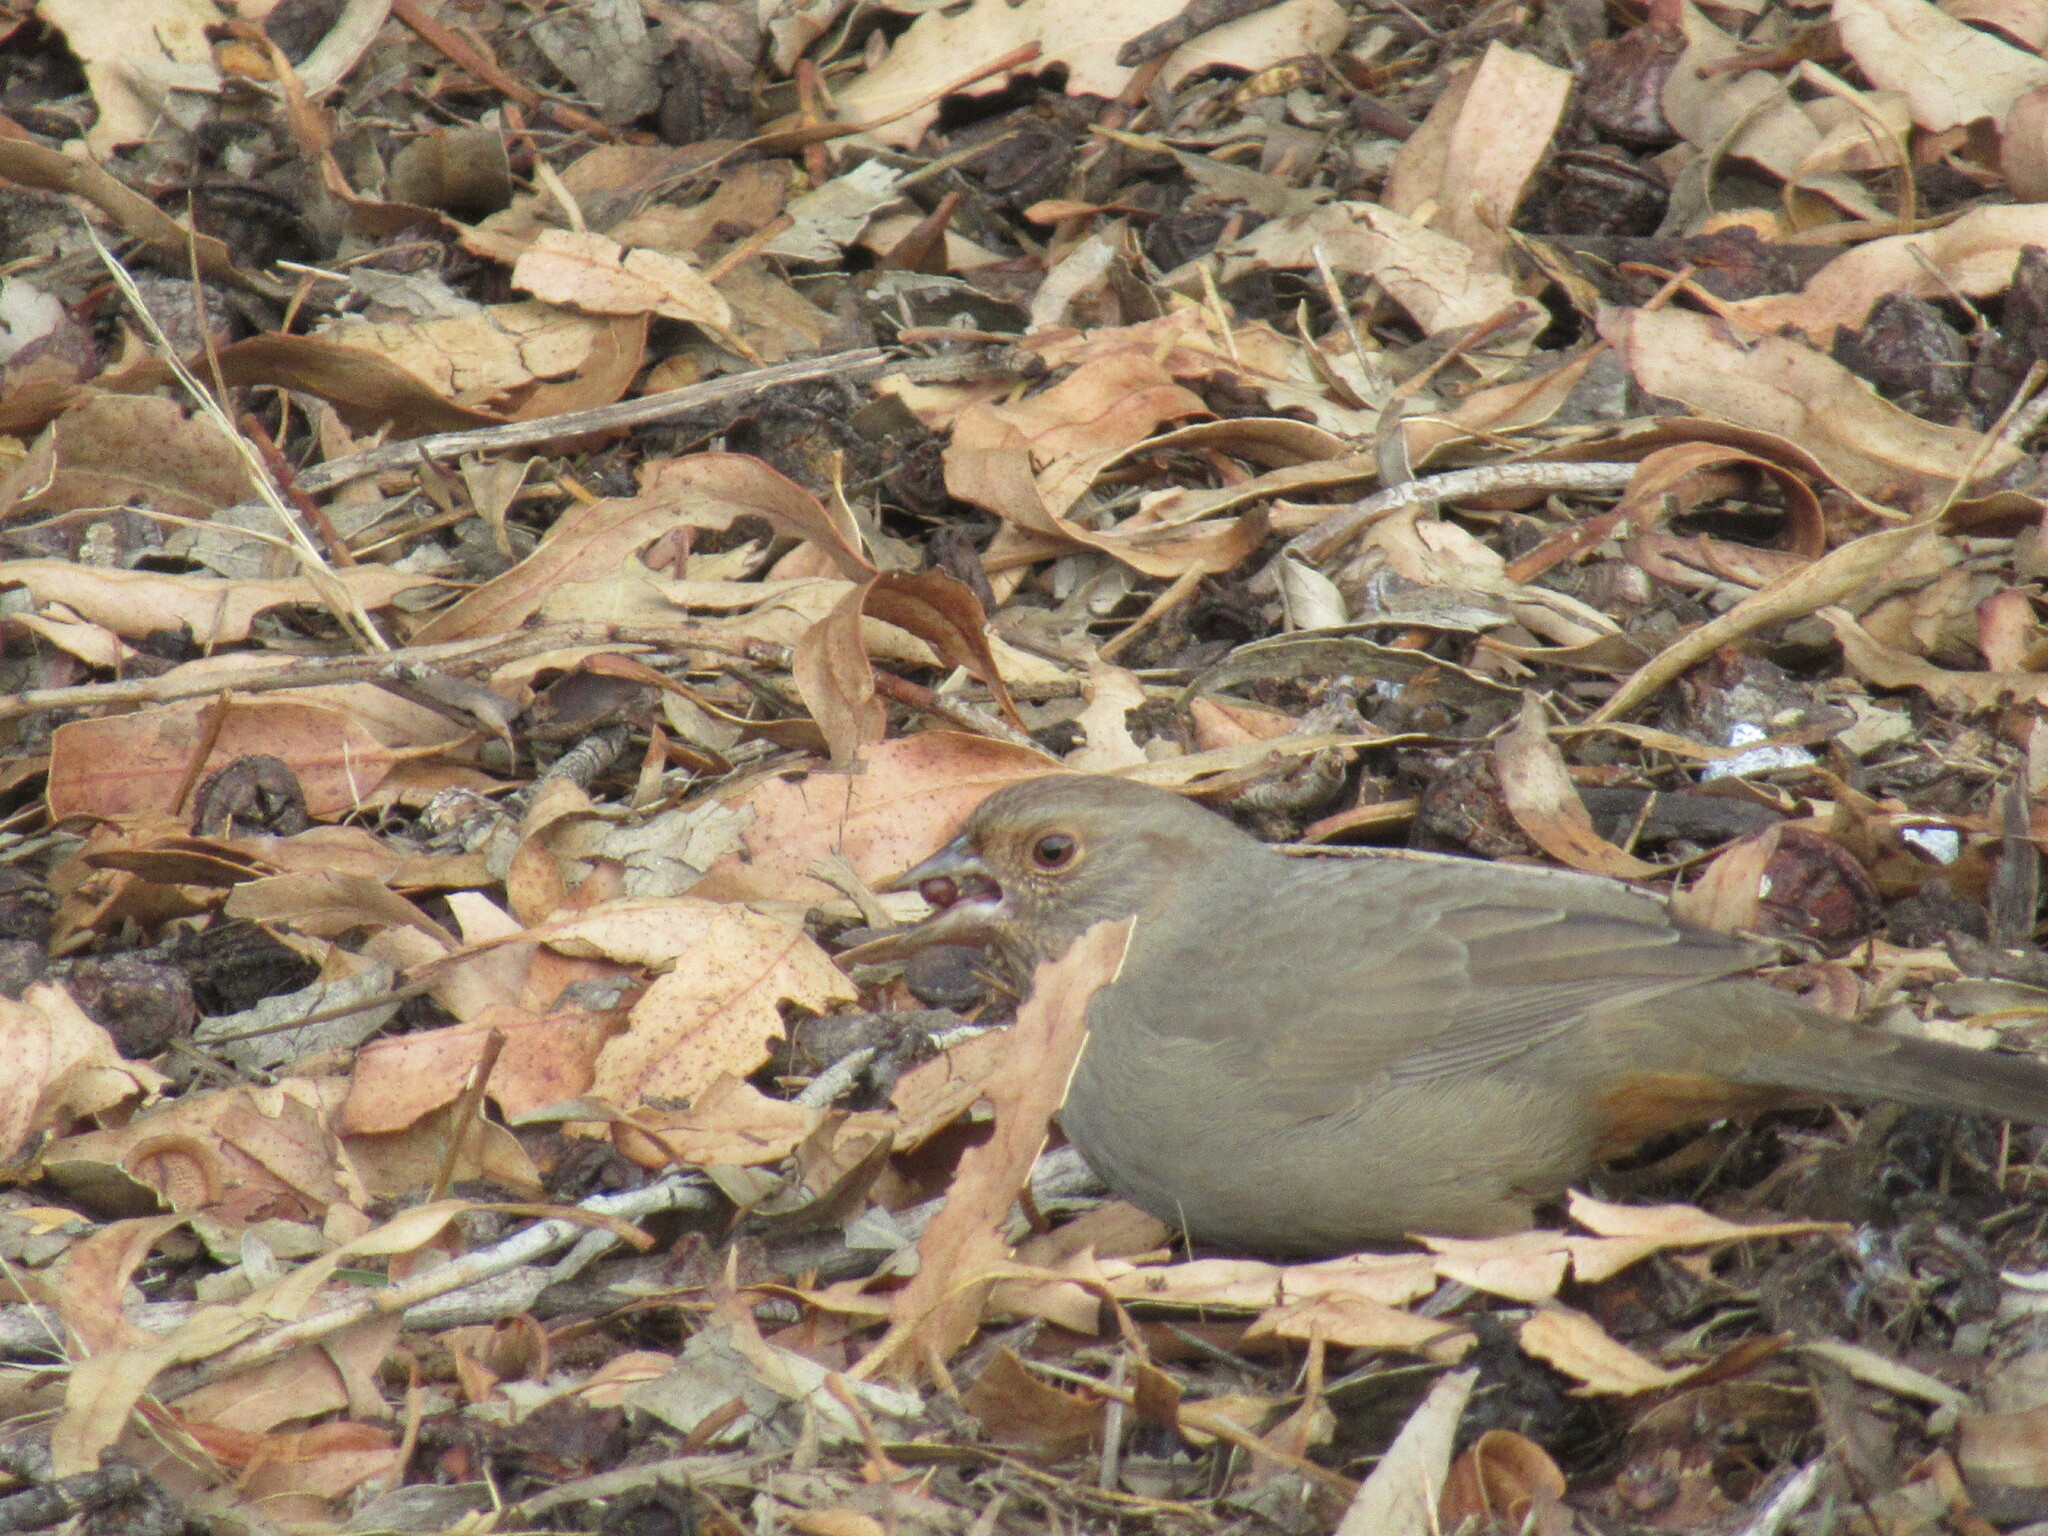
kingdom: Animalia
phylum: Chordata
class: Aves
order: Passeriformes
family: Passerellidae
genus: Melozone
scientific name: Melozone crissalis
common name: California towhee
